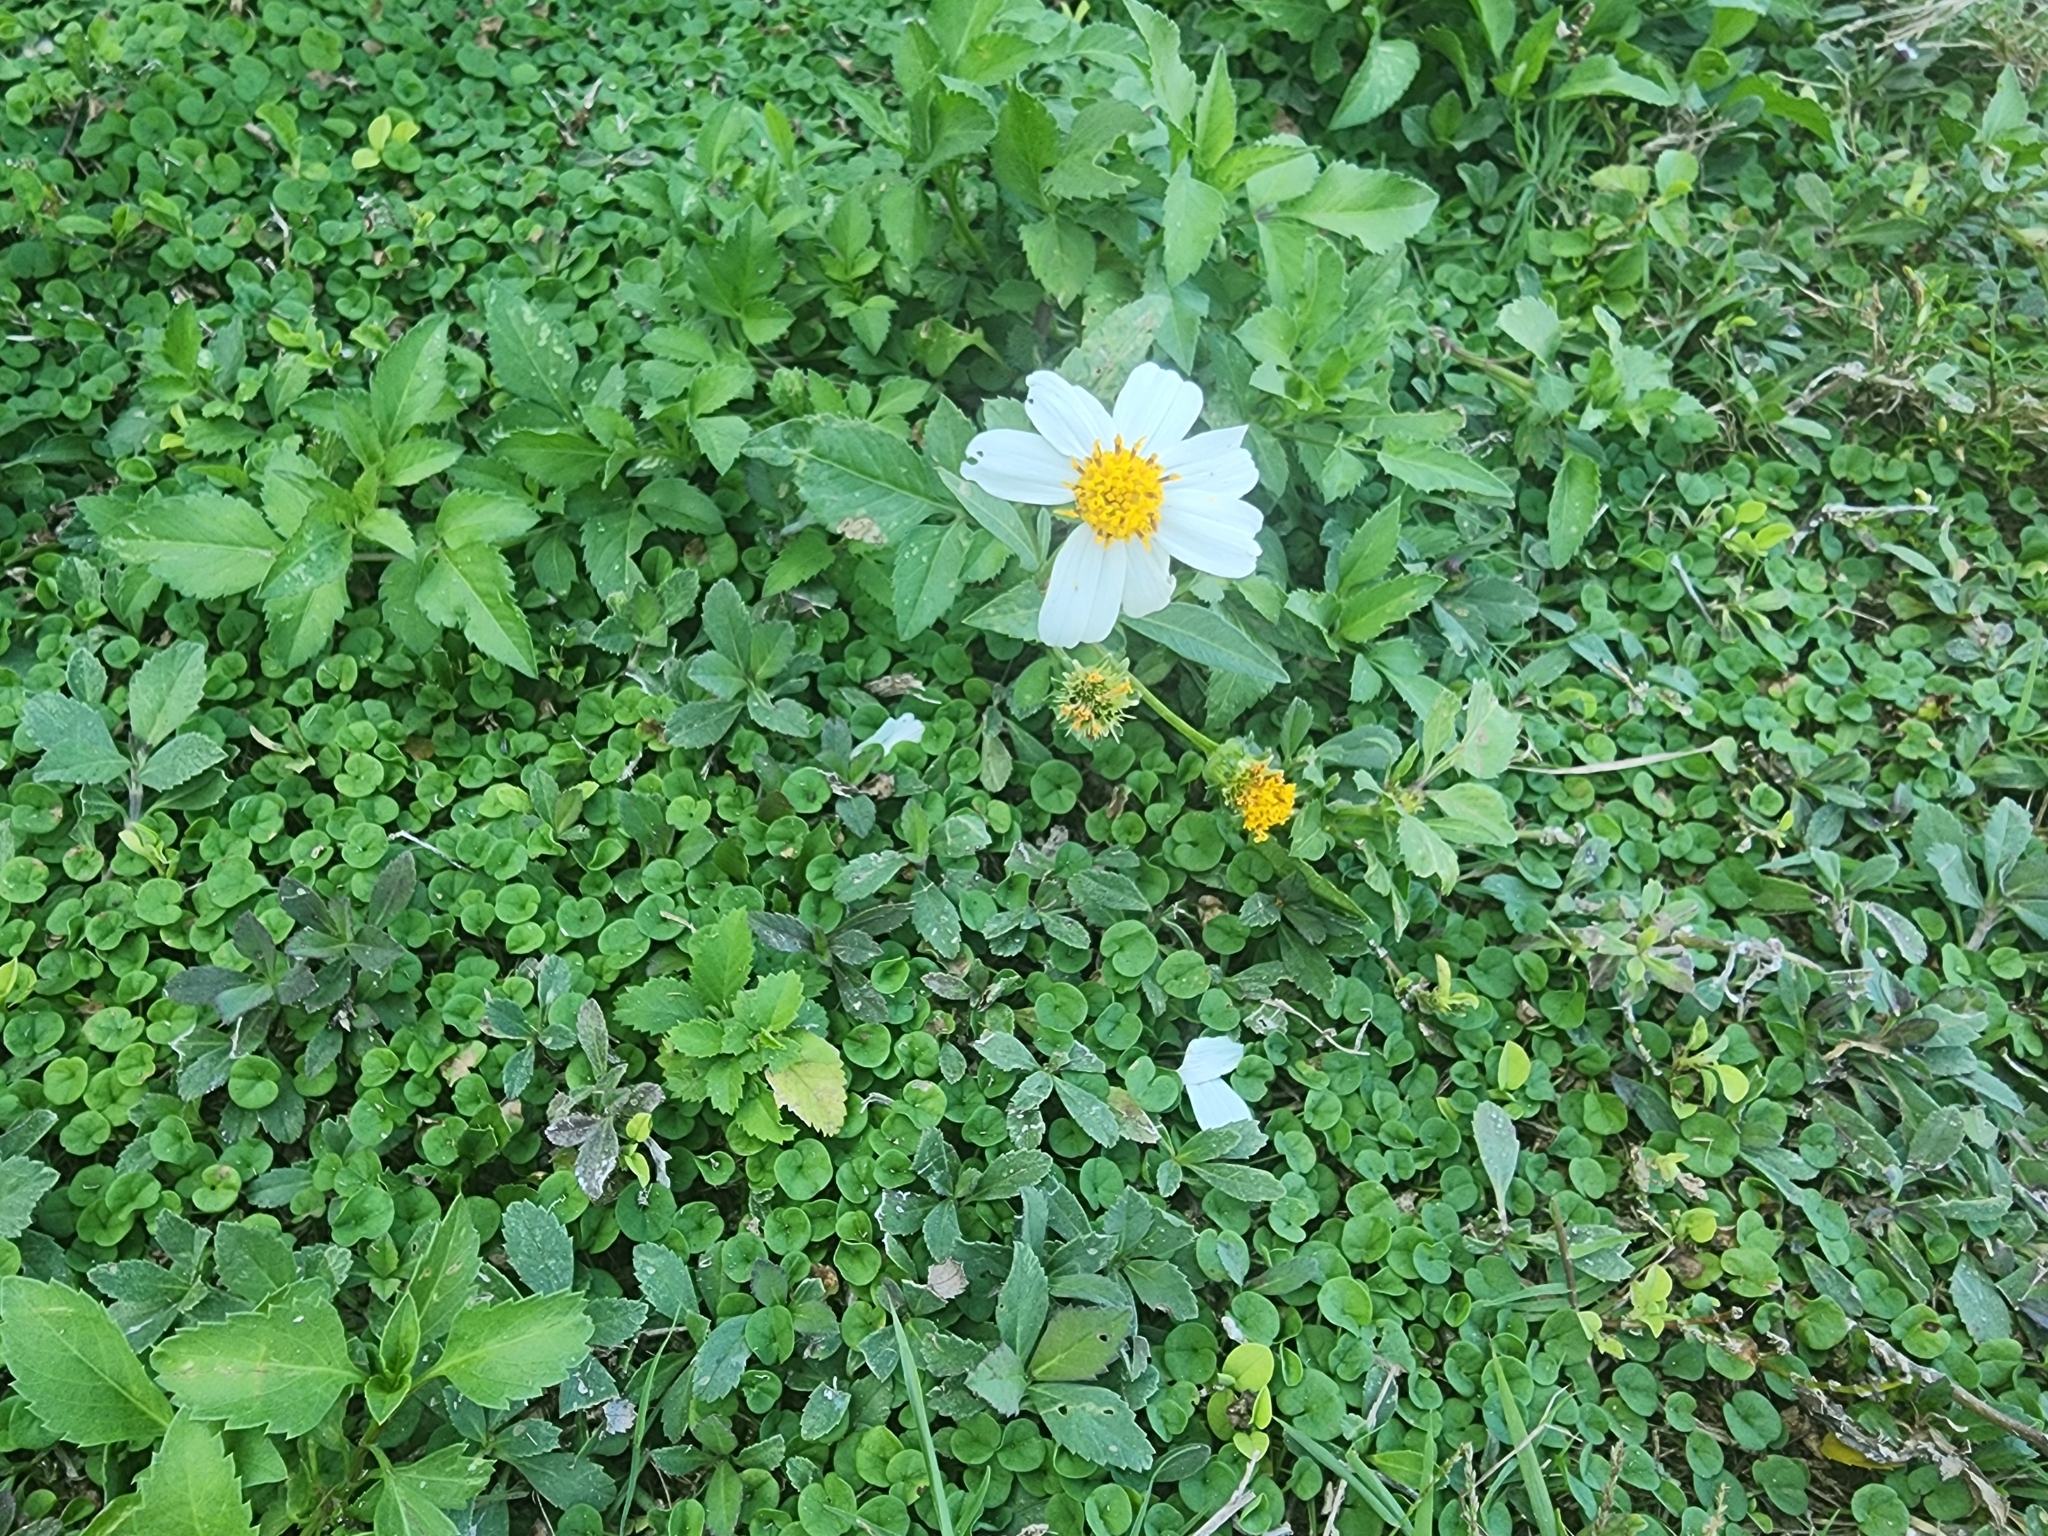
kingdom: Plantae
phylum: Tracheophyta
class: Magnoliopsida
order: Asterales
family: Asteraceae
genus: Bidens
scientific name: Bidens alba
